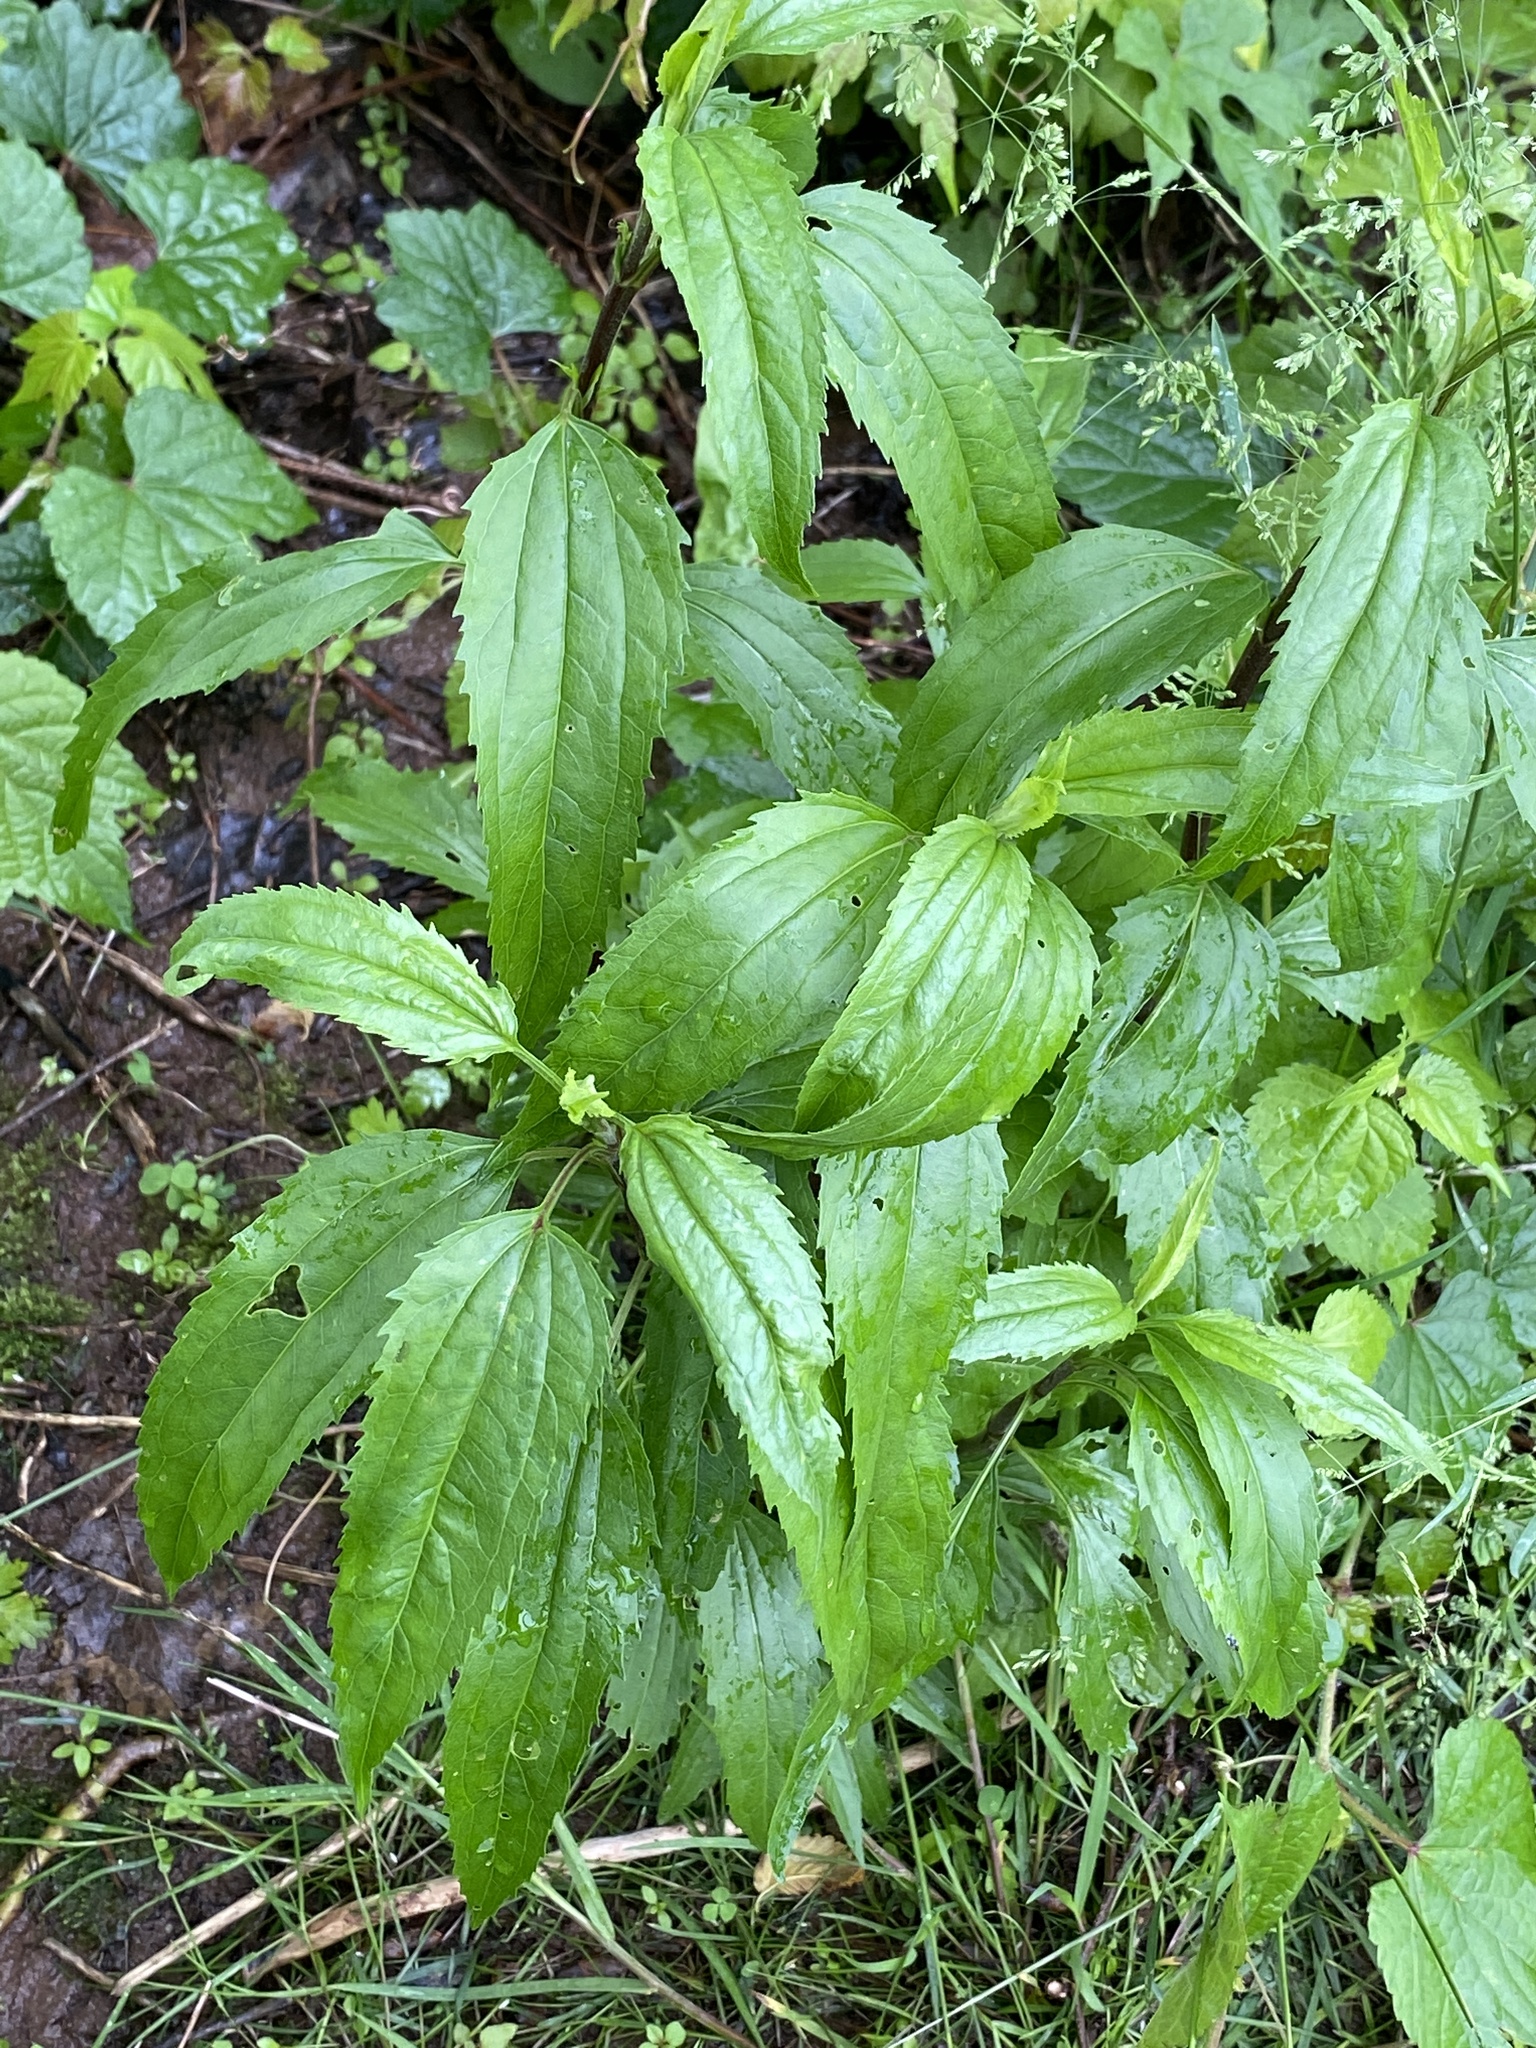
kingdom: Plantae
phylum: Tracheophyta
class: Magnoliopsida
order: Asterales
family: Asteraceae
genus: Eupatorium
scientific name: Eupatorium serotinum
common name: Late boneset
